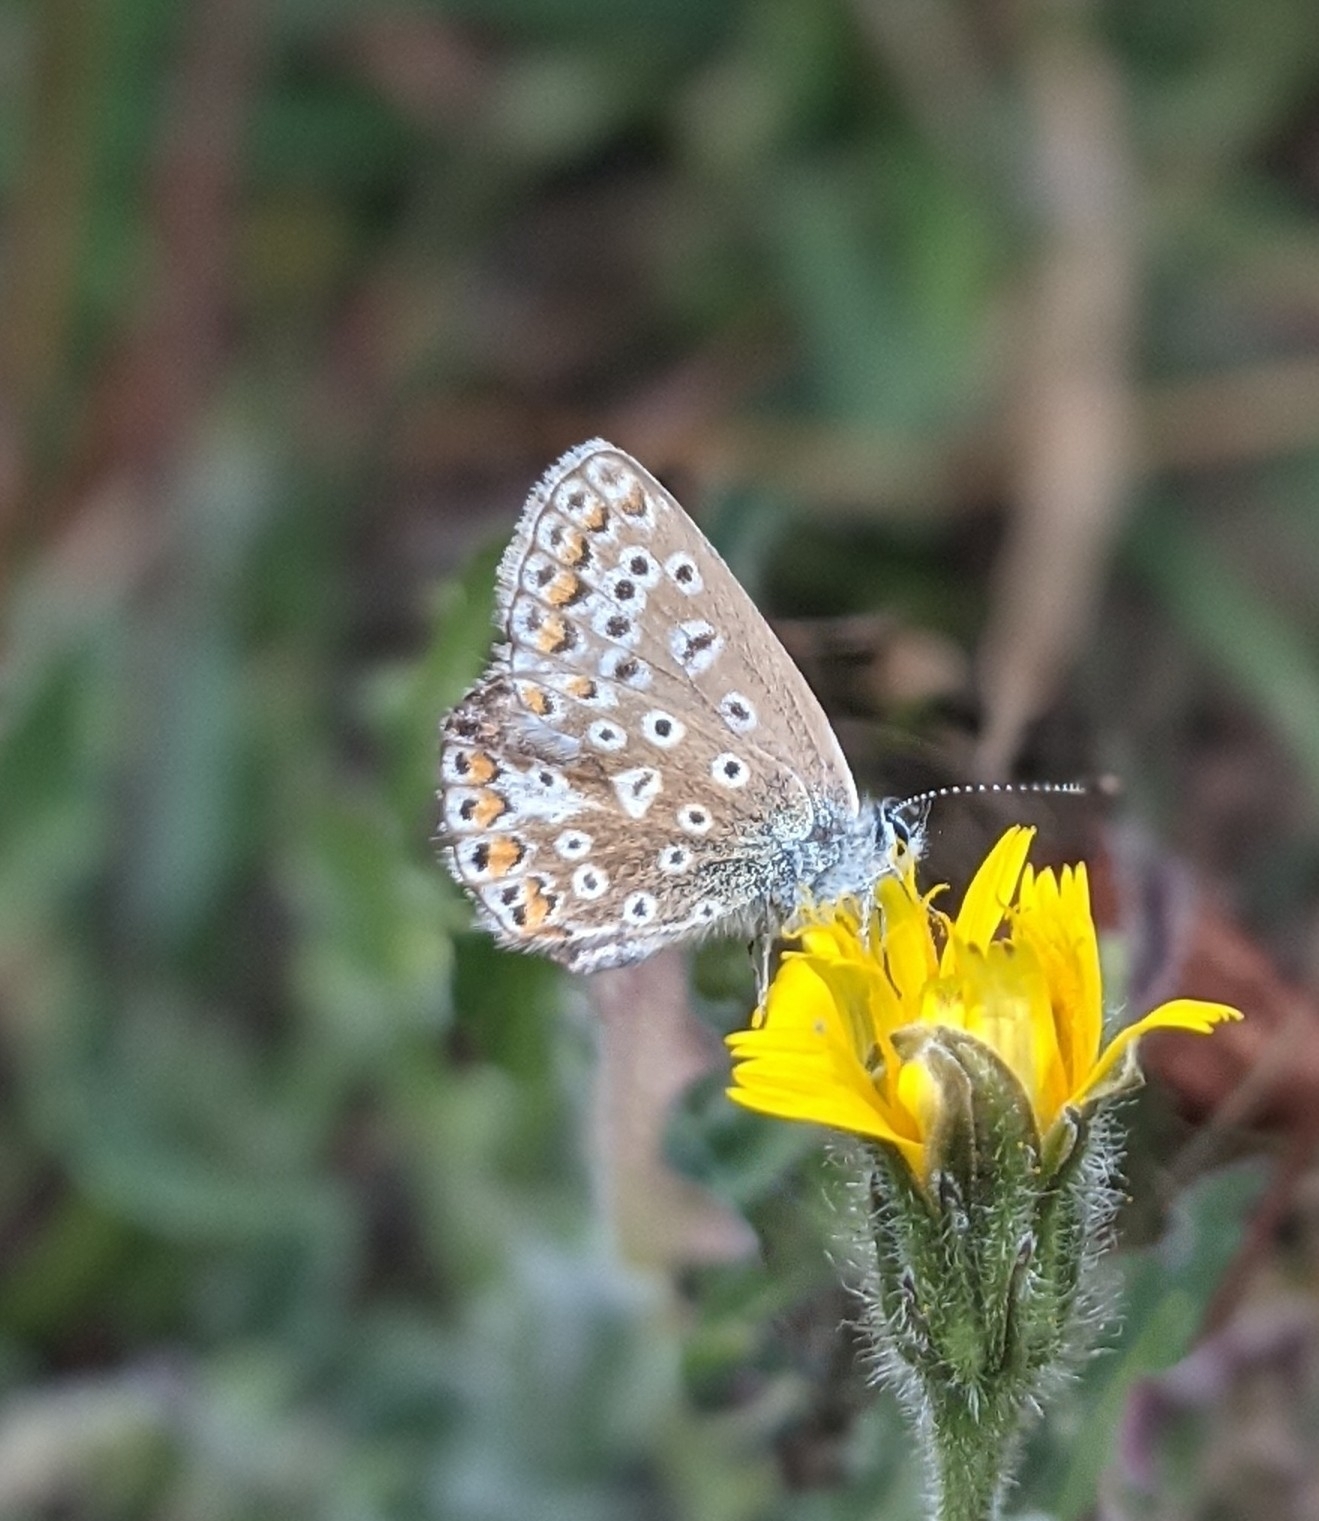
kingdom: Animalia
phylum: Arthropoda
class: Insecta
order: Lepidoptera
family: Lycaenidae
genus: Polyommatus
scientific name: Polyommatus icarus
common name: Common blue
